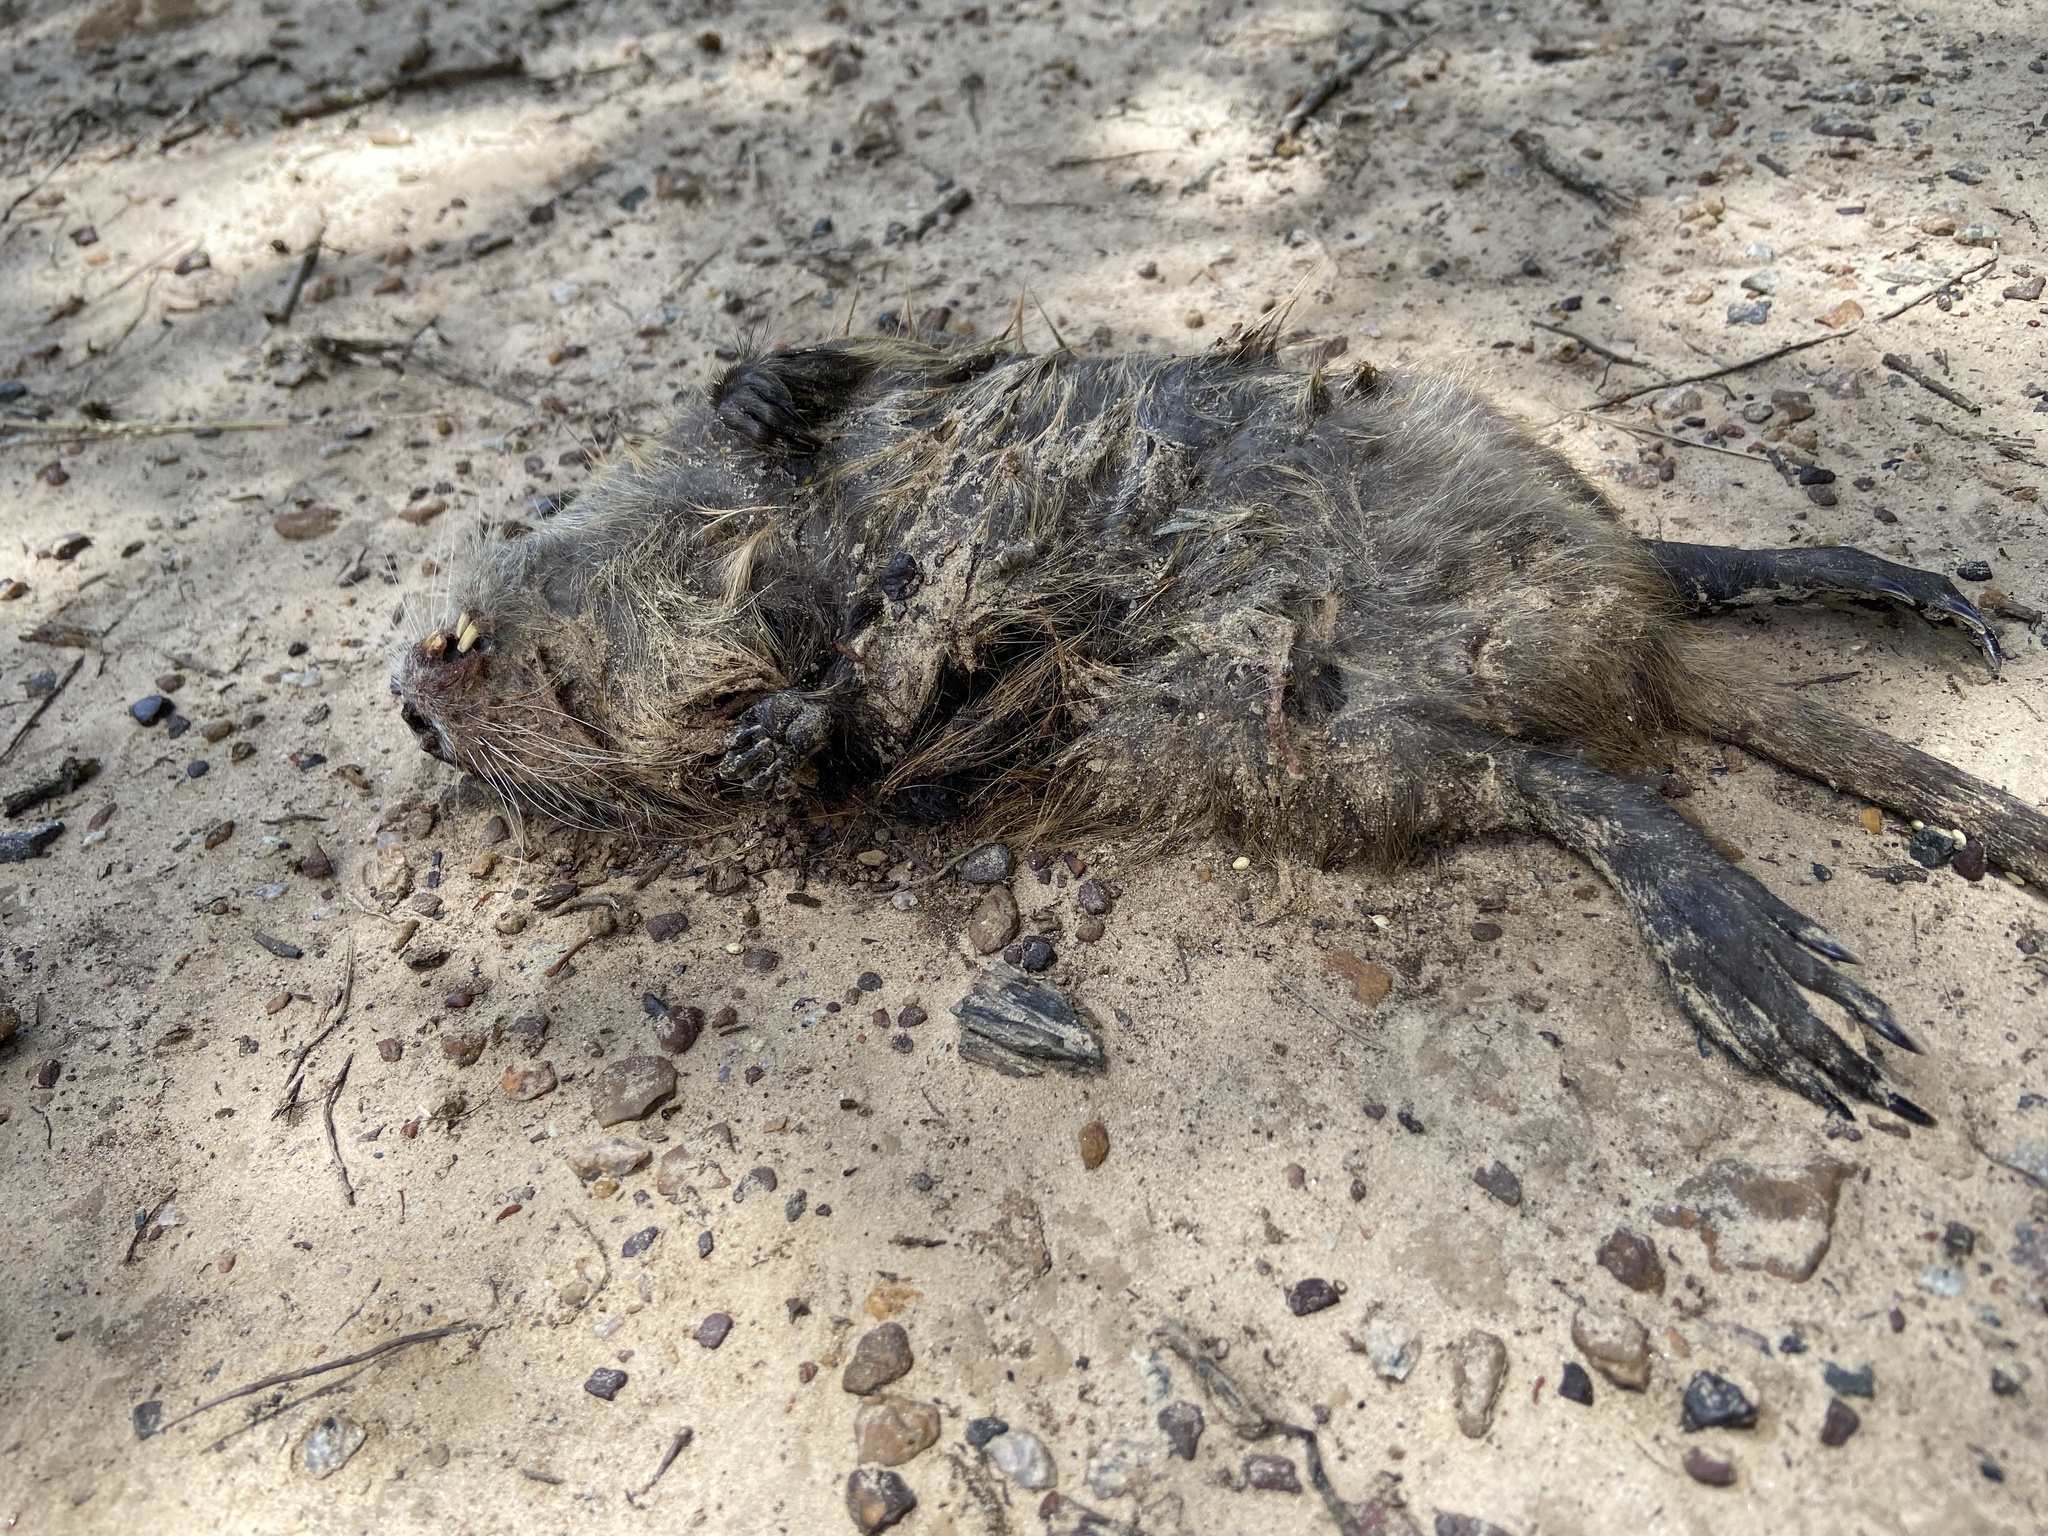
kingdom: Animalia
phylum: Chordata
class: Mammalia
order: Rodentia
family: Myocastoridae
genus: Myocastor
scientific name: Myocastor coypus
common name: Coypu
